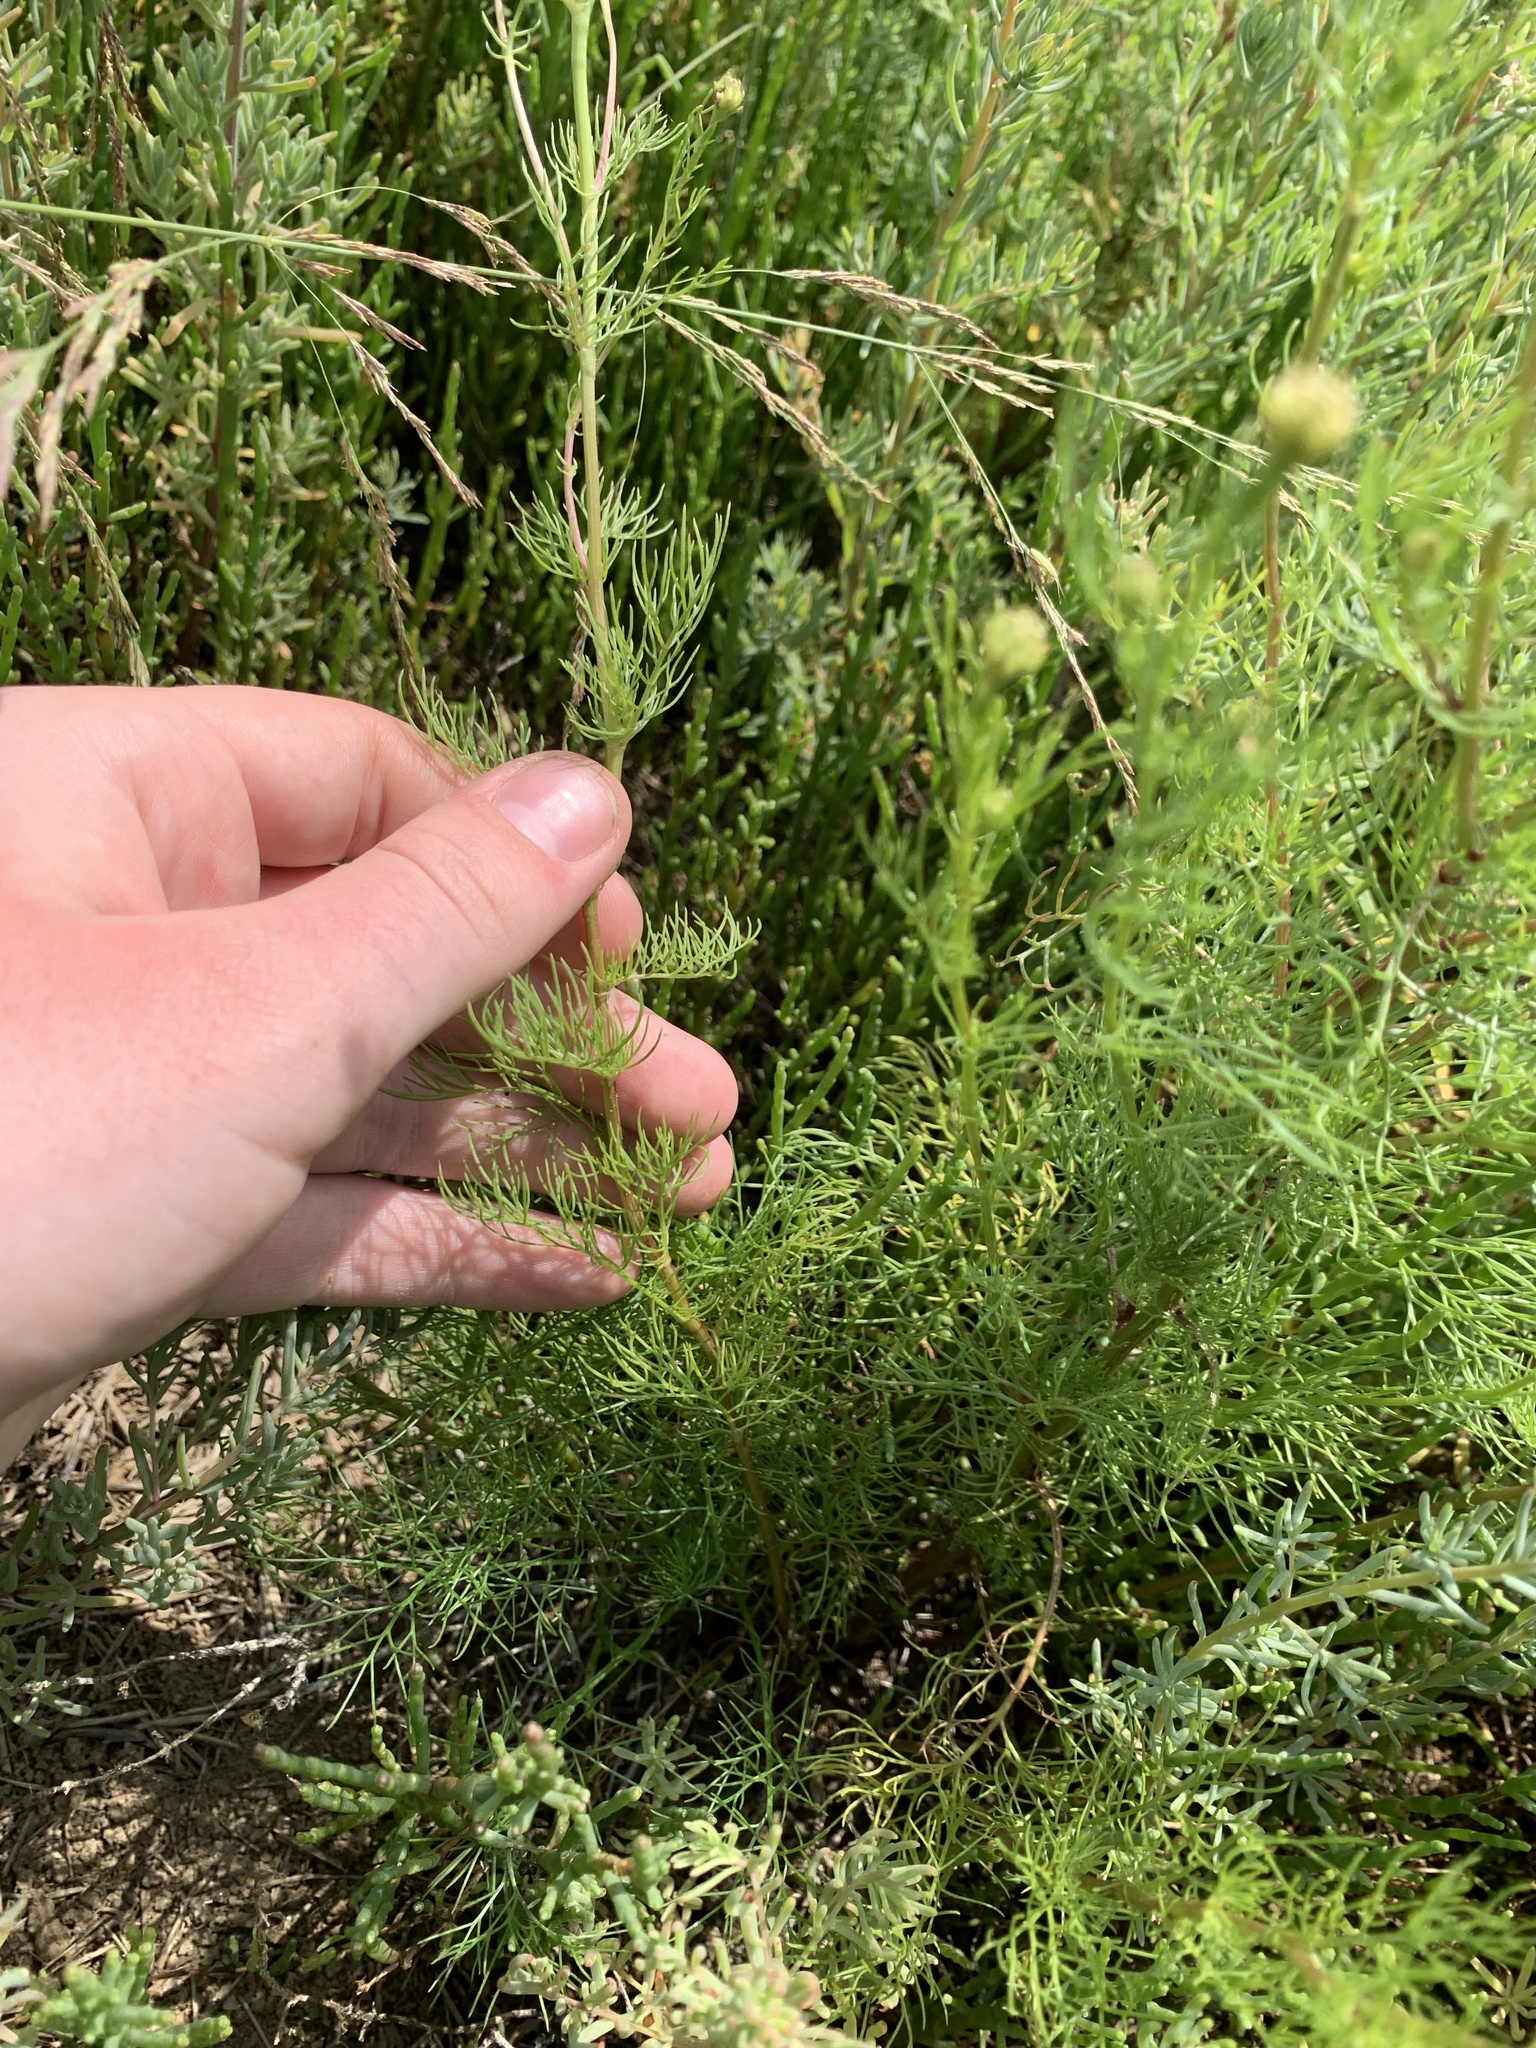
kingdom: Plantae
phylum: Tracheophyta
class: Magnoliopsida
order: Asterales
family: Asteraceae
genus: Tripleurospermum
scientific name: Tripleurospermum inodorum
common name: Scentless mayweed
